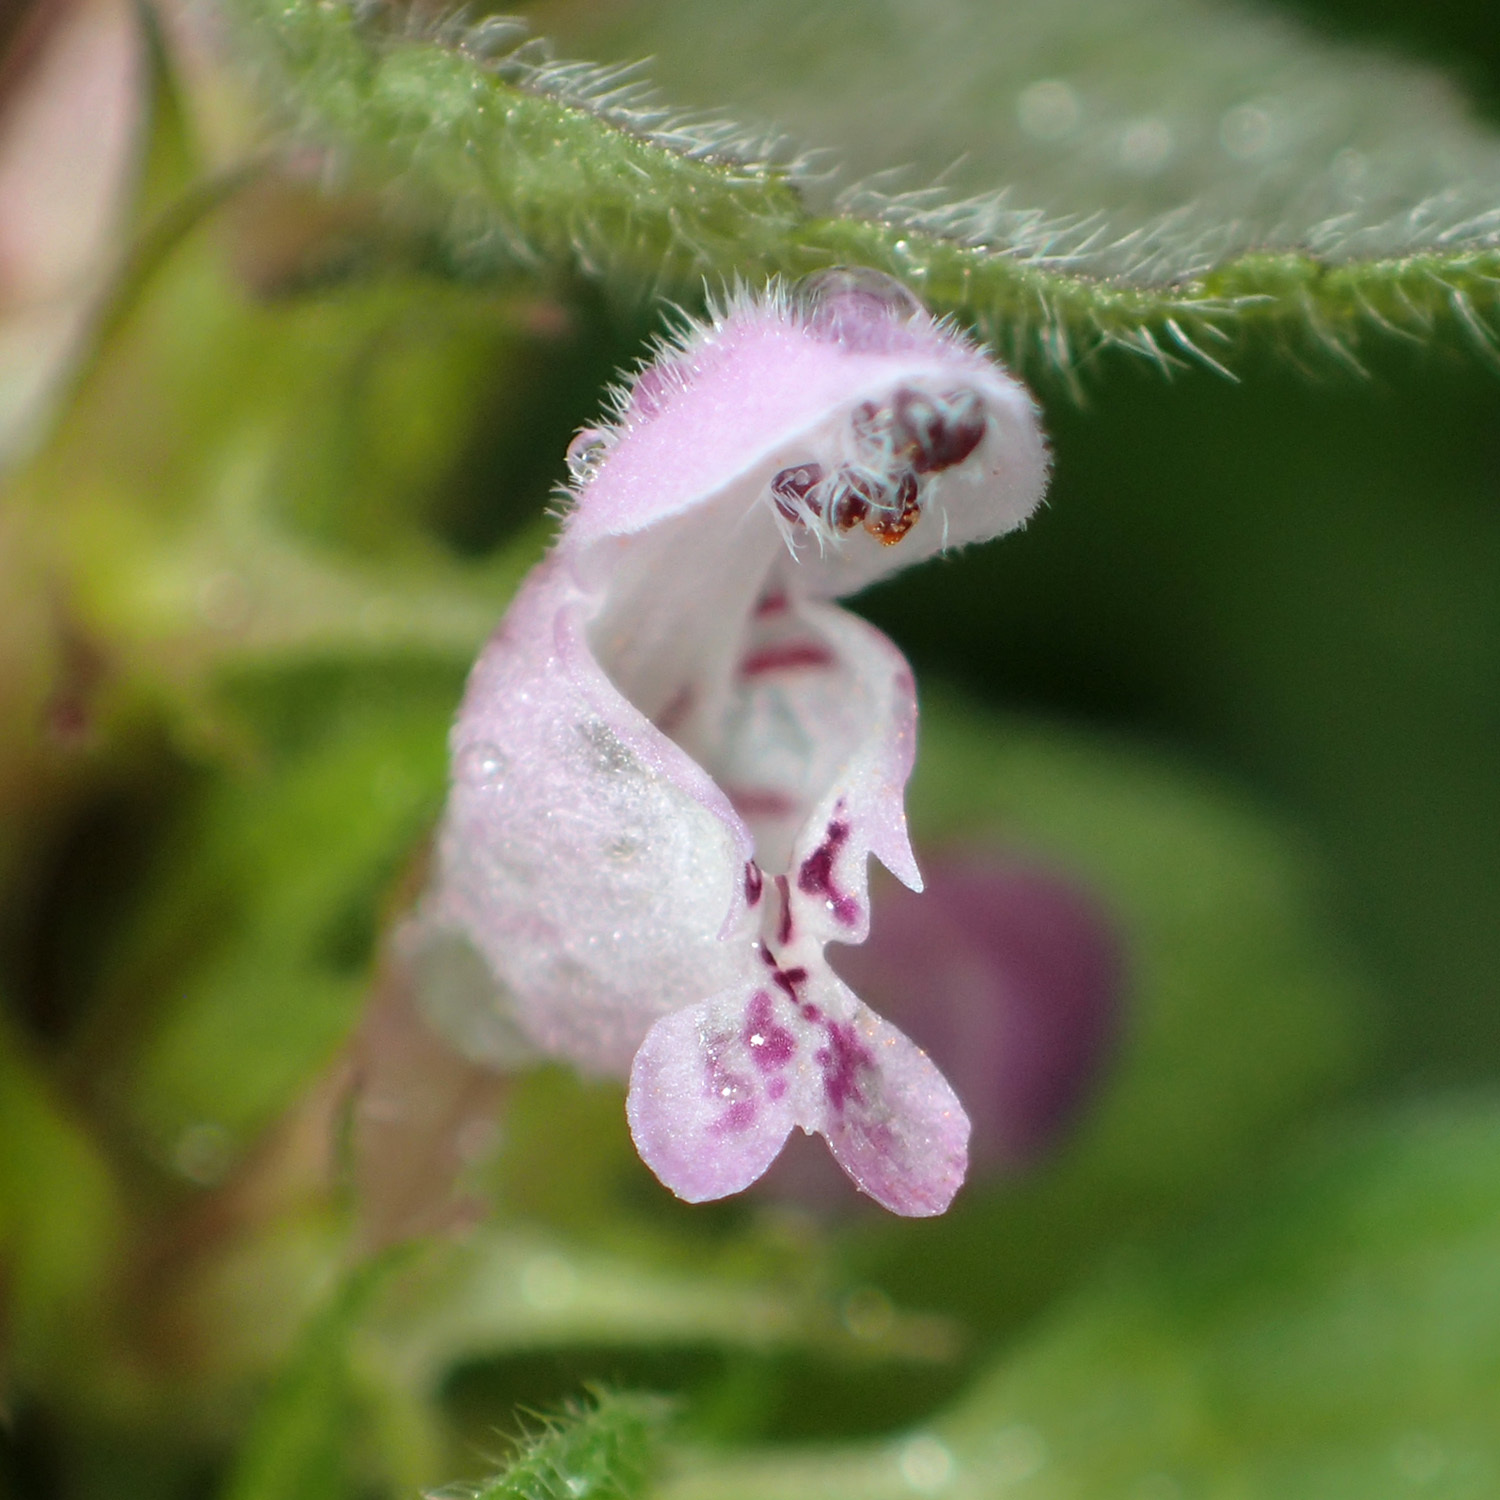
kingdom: Plantae
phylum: Tracheophyta
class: Magnoliopsida
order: Lamiales
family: Lamiaceae
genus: Lamium
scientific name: Lamium purpureum
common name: Red dead-nettle
